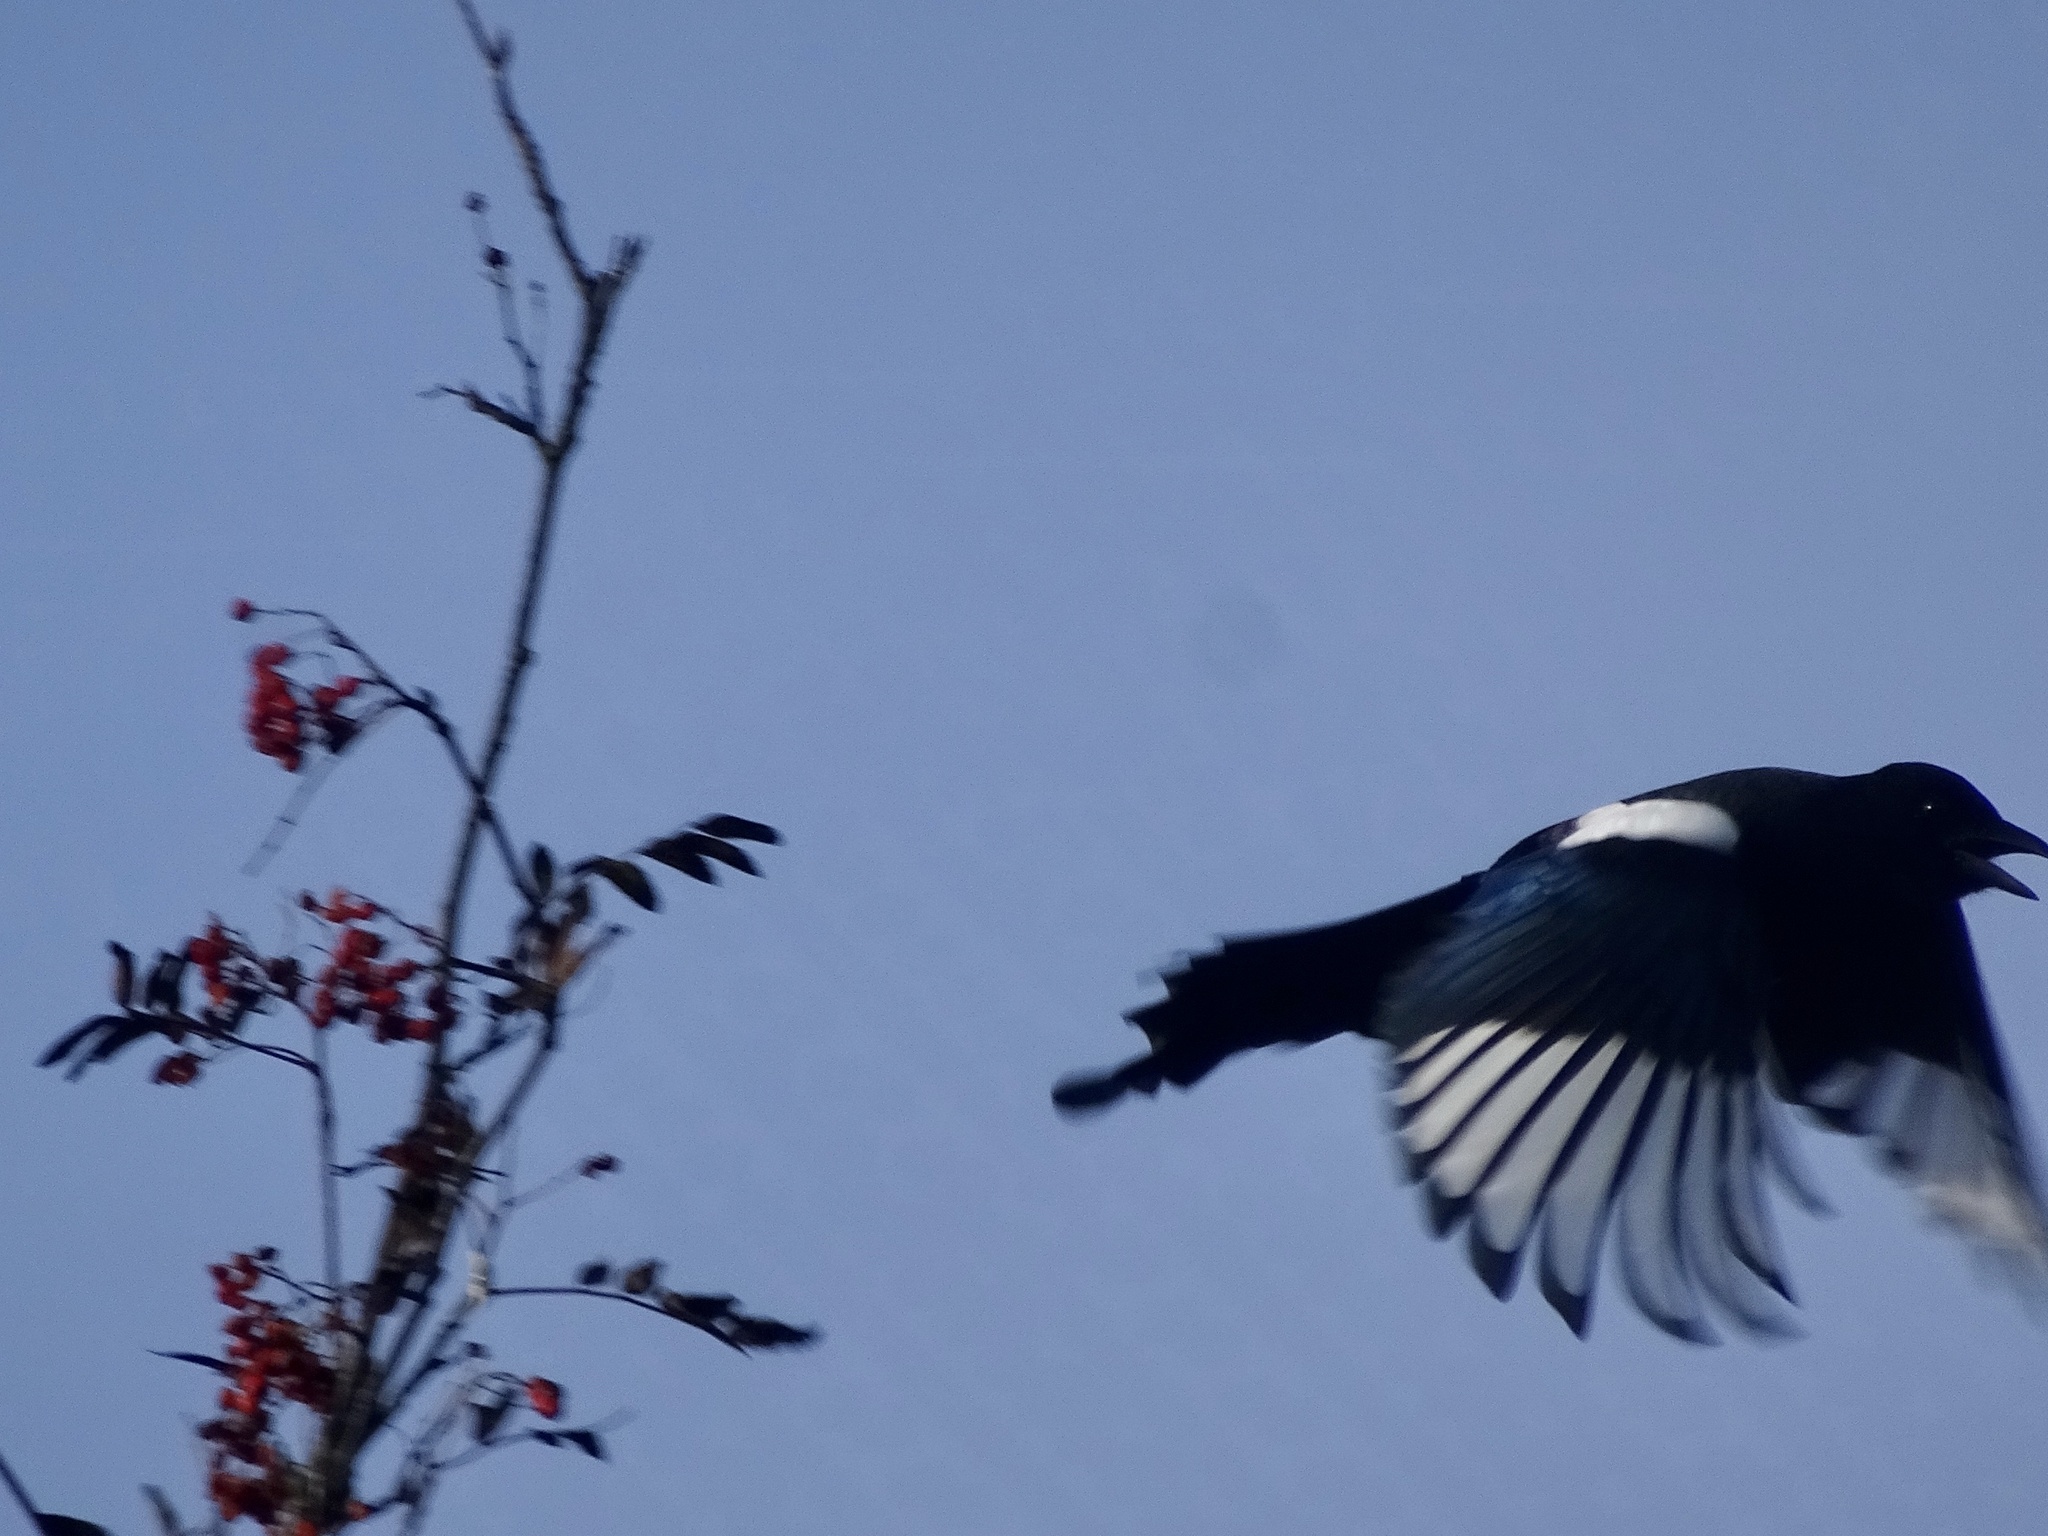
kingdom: Animalia
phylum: Chordata
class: Aves
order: Passeriformes
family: Corvidae
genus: Pica
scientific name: Pica pica
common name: Eurasian magpie
